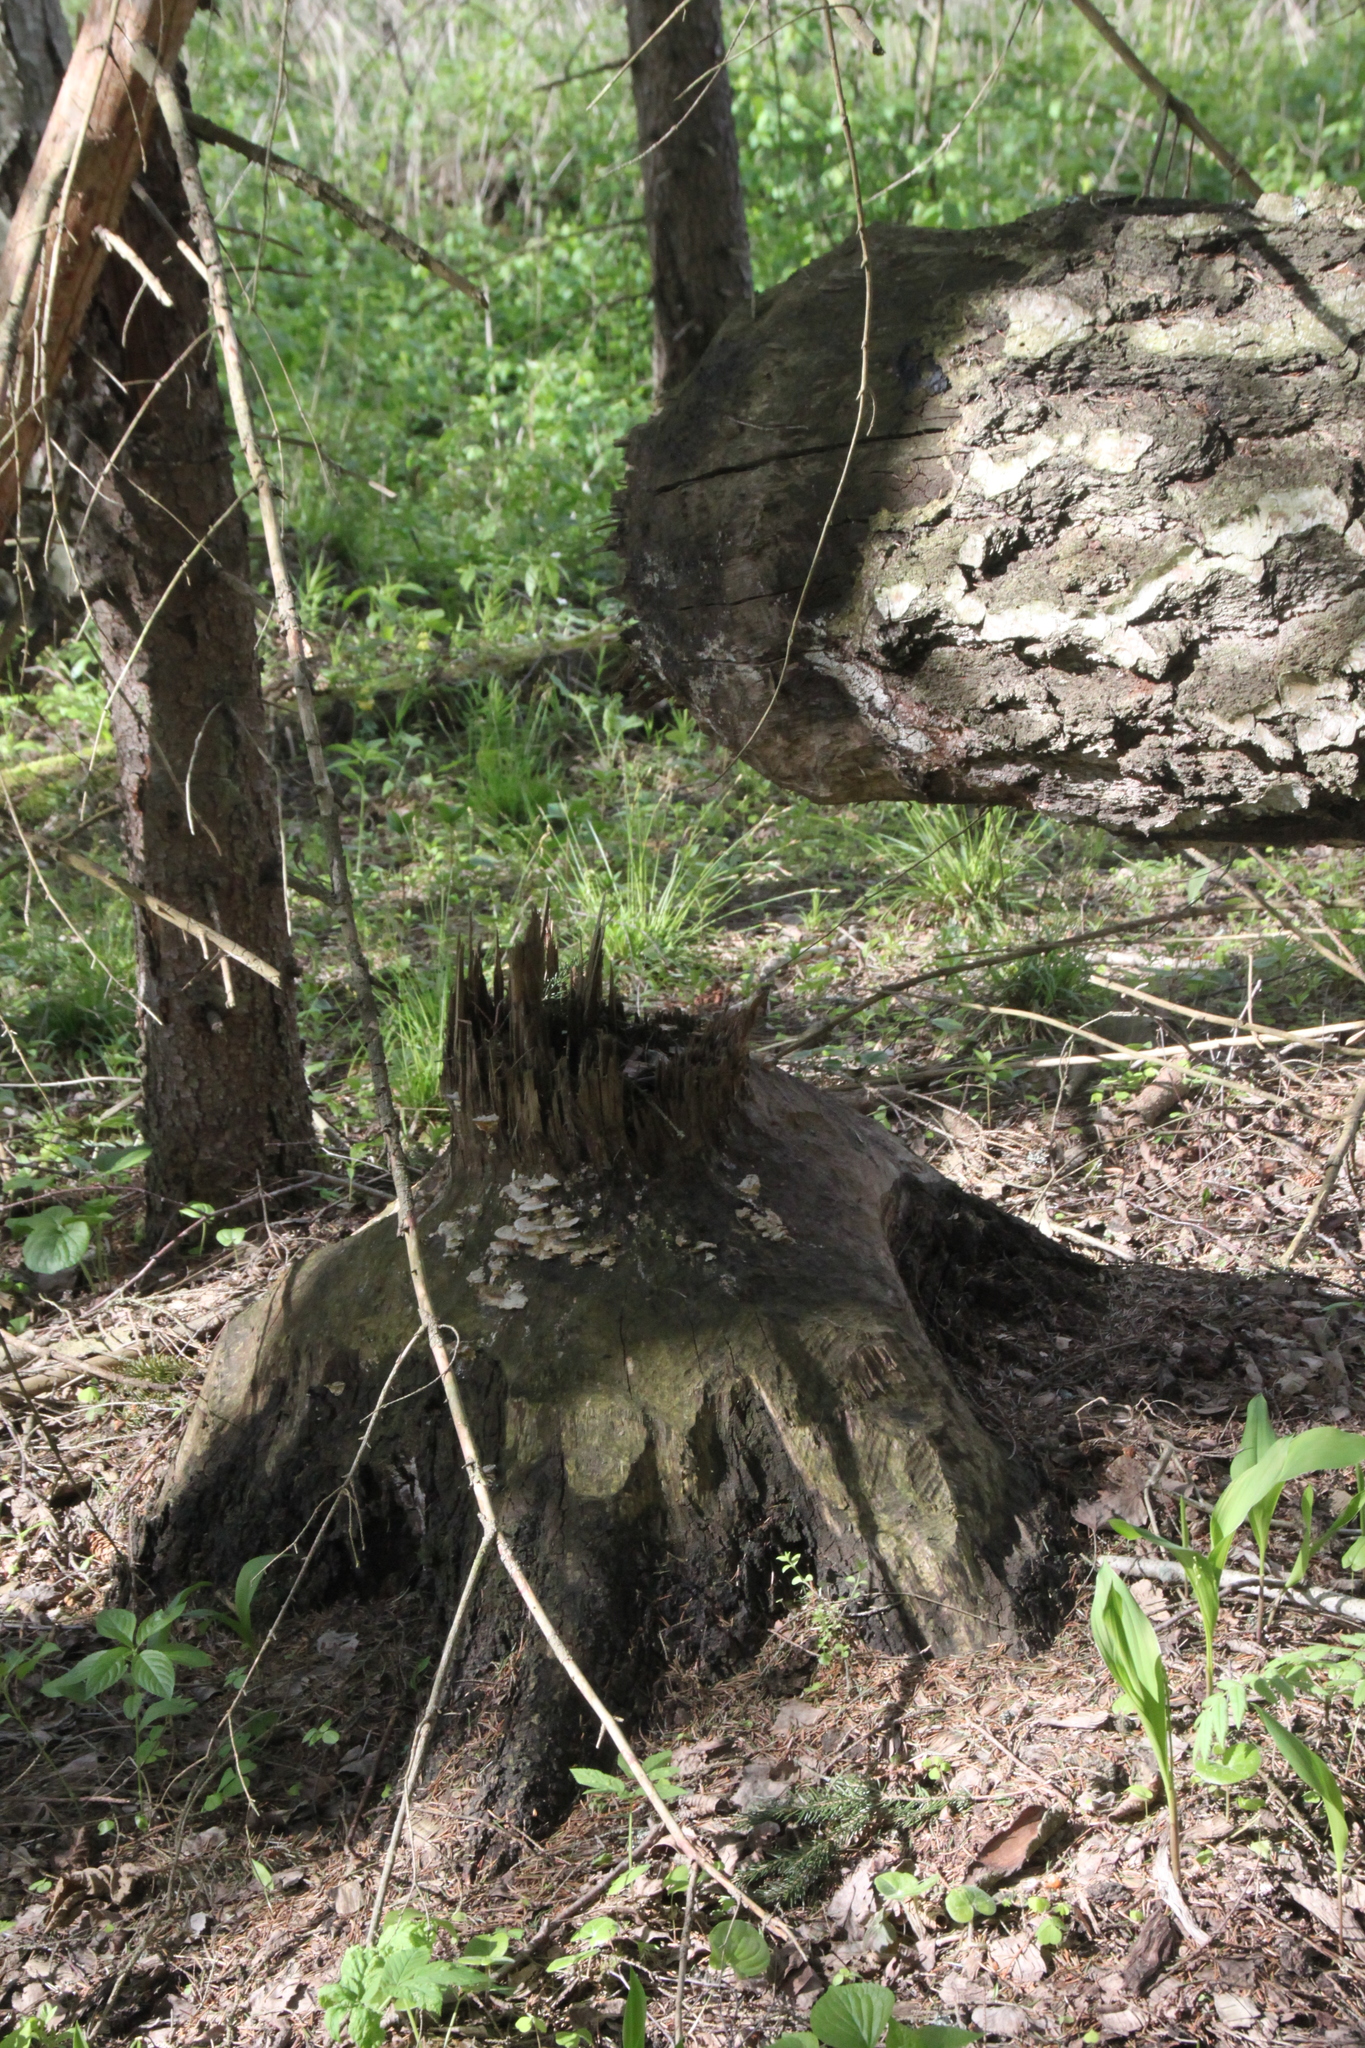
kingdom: Animalia
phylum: Chordata
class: Mammalia
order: Rodentia
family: Castoridae
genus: Castor
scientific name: Castor fiber
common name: Eurasian beaver
